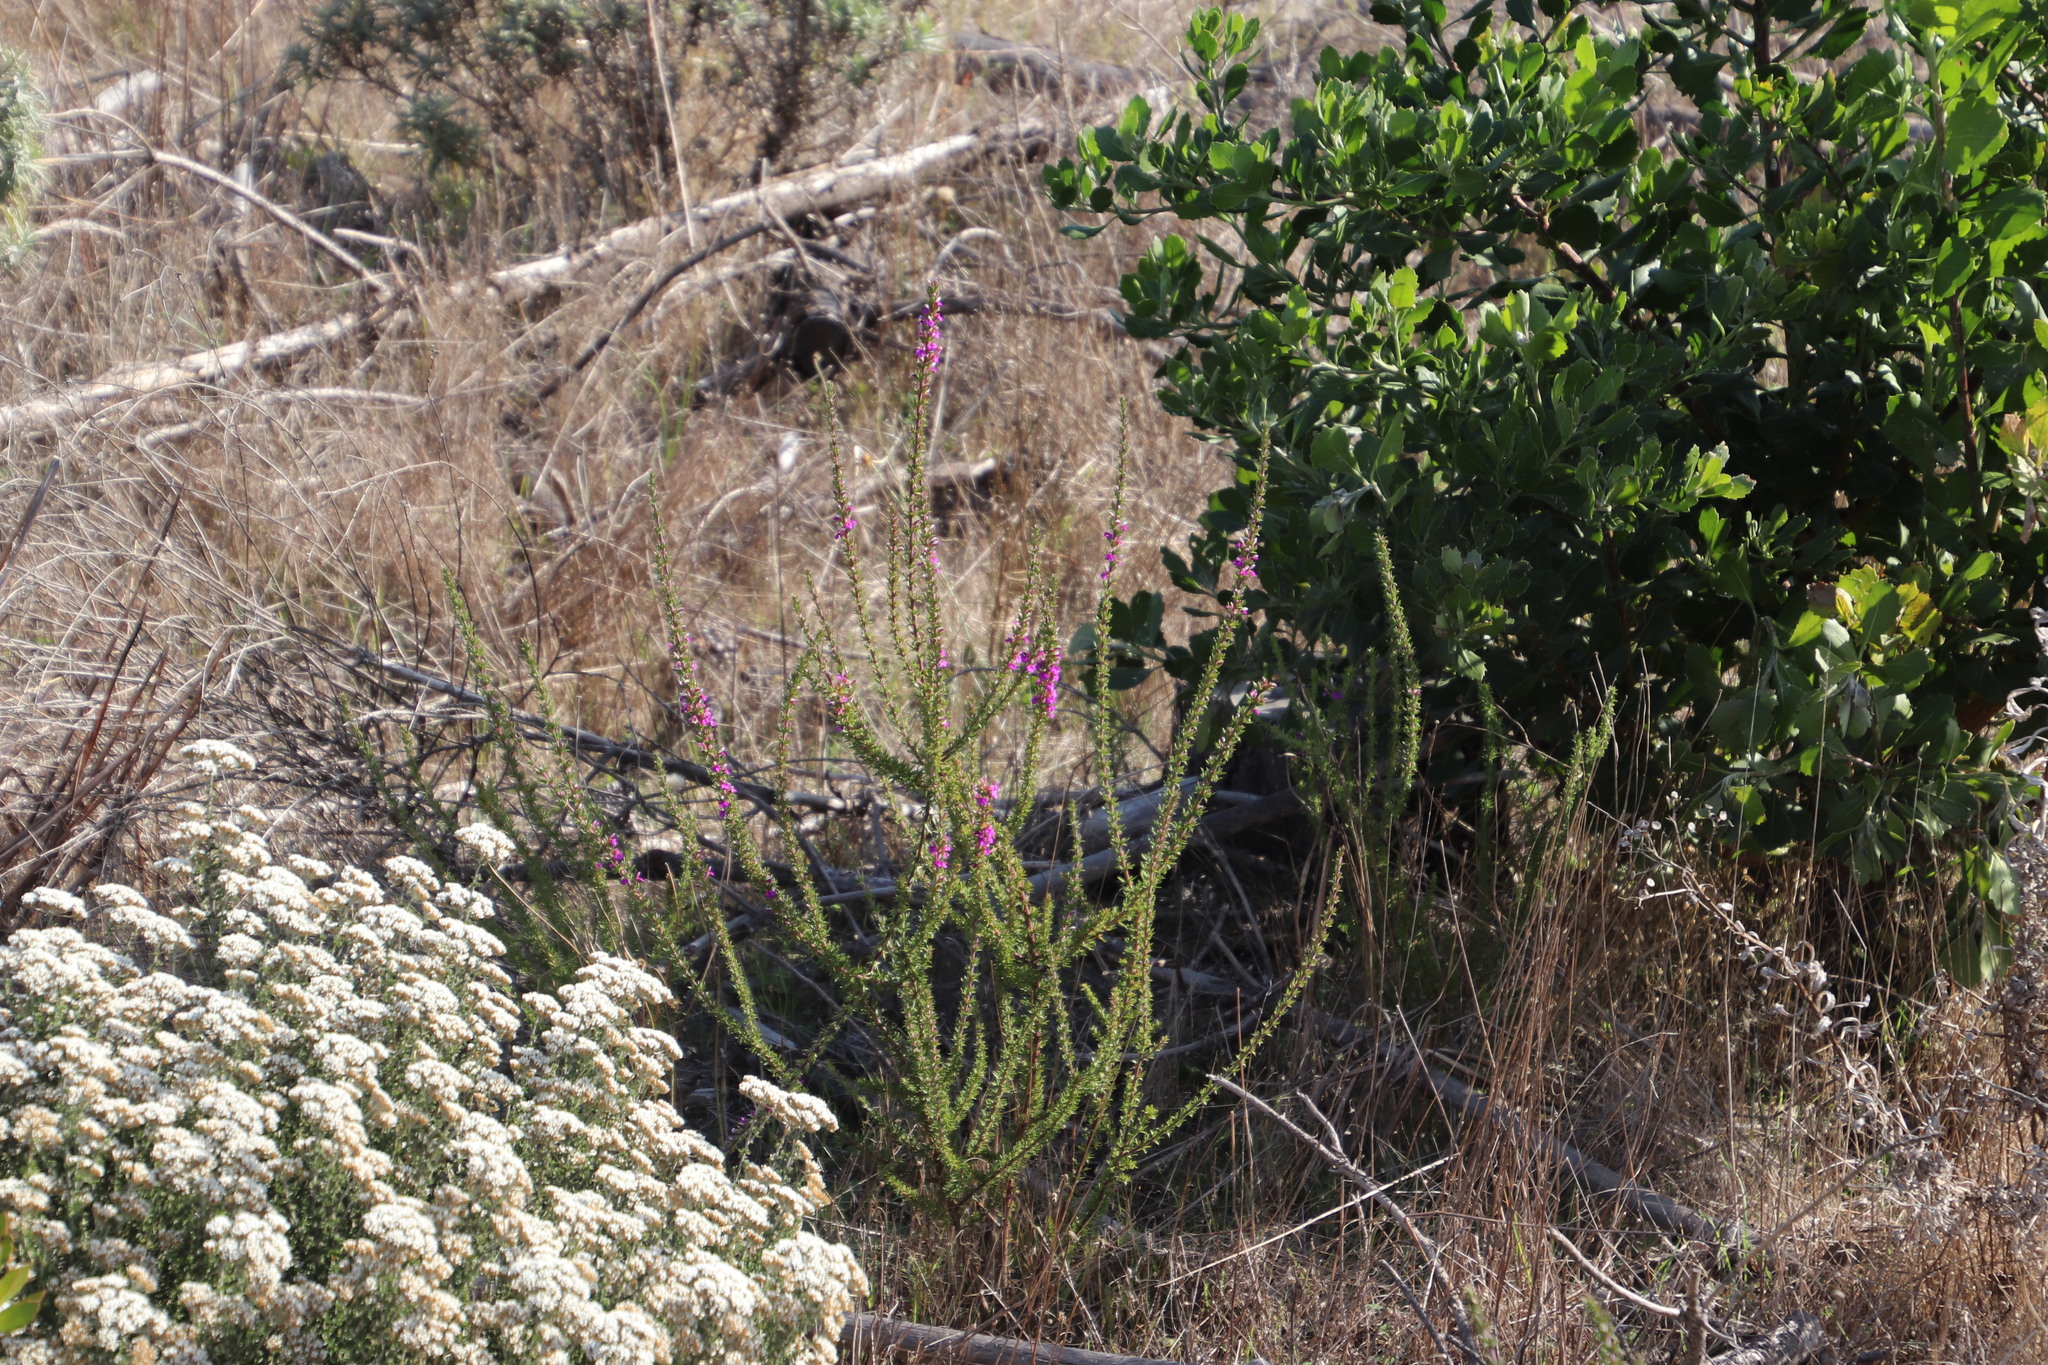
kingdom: Plantae
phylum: Tracheophyta
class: Magnoliopsida
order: Fabales
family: Polygalaceae
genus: Muraltia
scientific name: Muraltia heisteria
